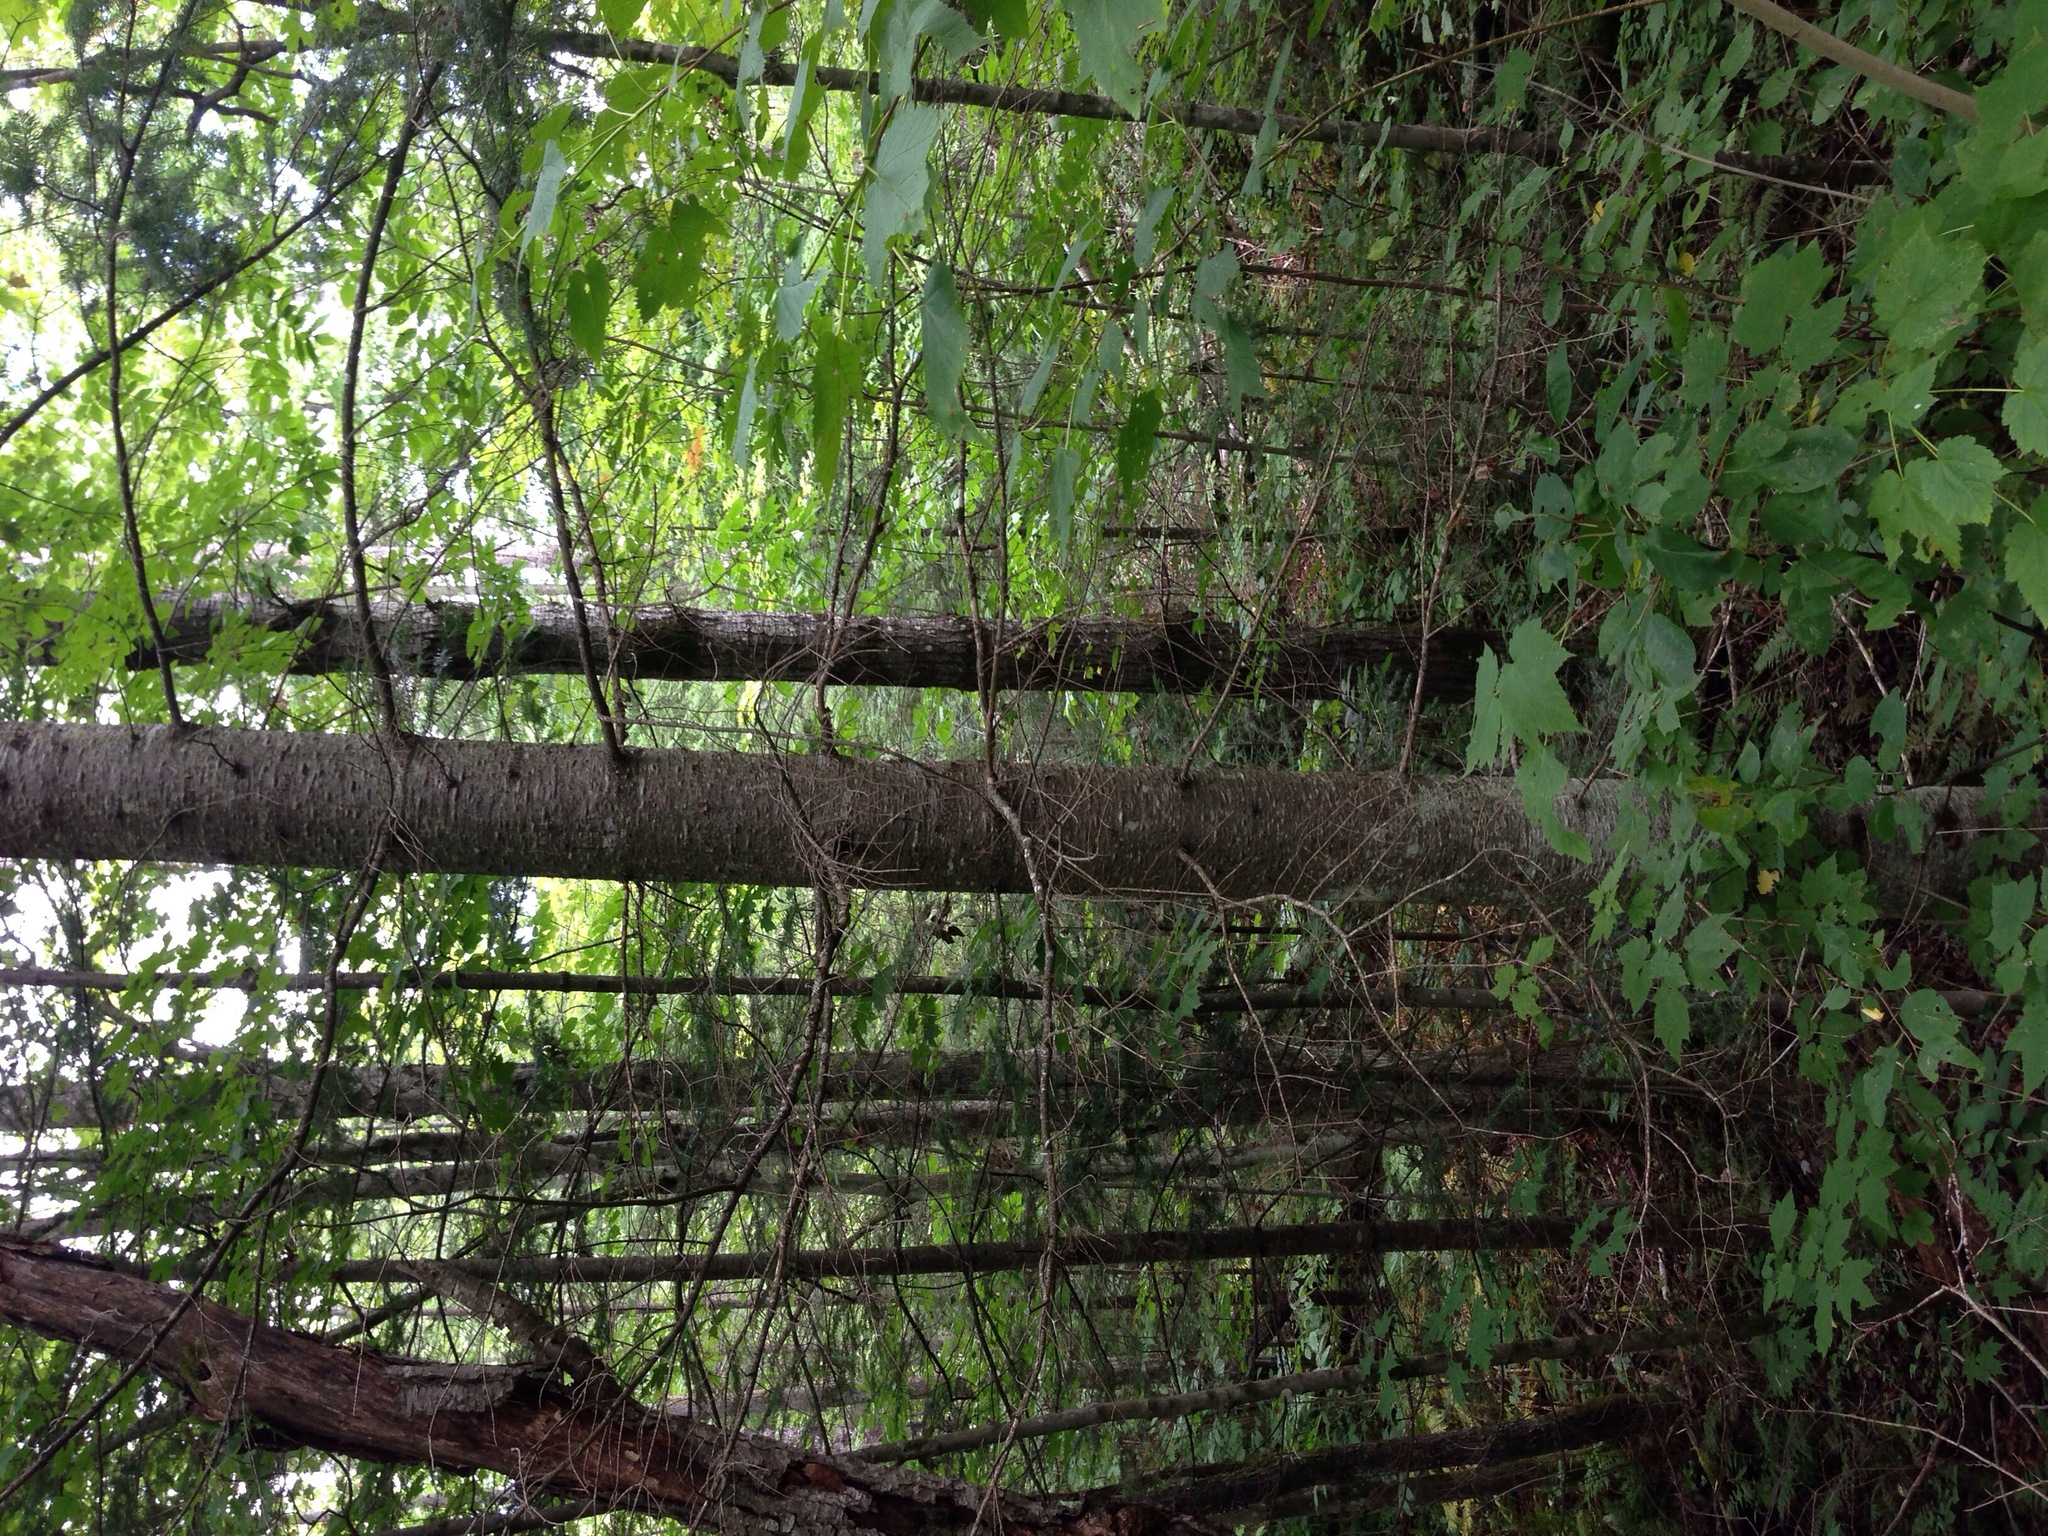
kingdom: Plantae
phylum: Tracheophyta
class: Pinopsida
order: Pinales
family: Pinaceae
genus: Abies
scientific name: Abies balsamea
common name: Balsam fir
